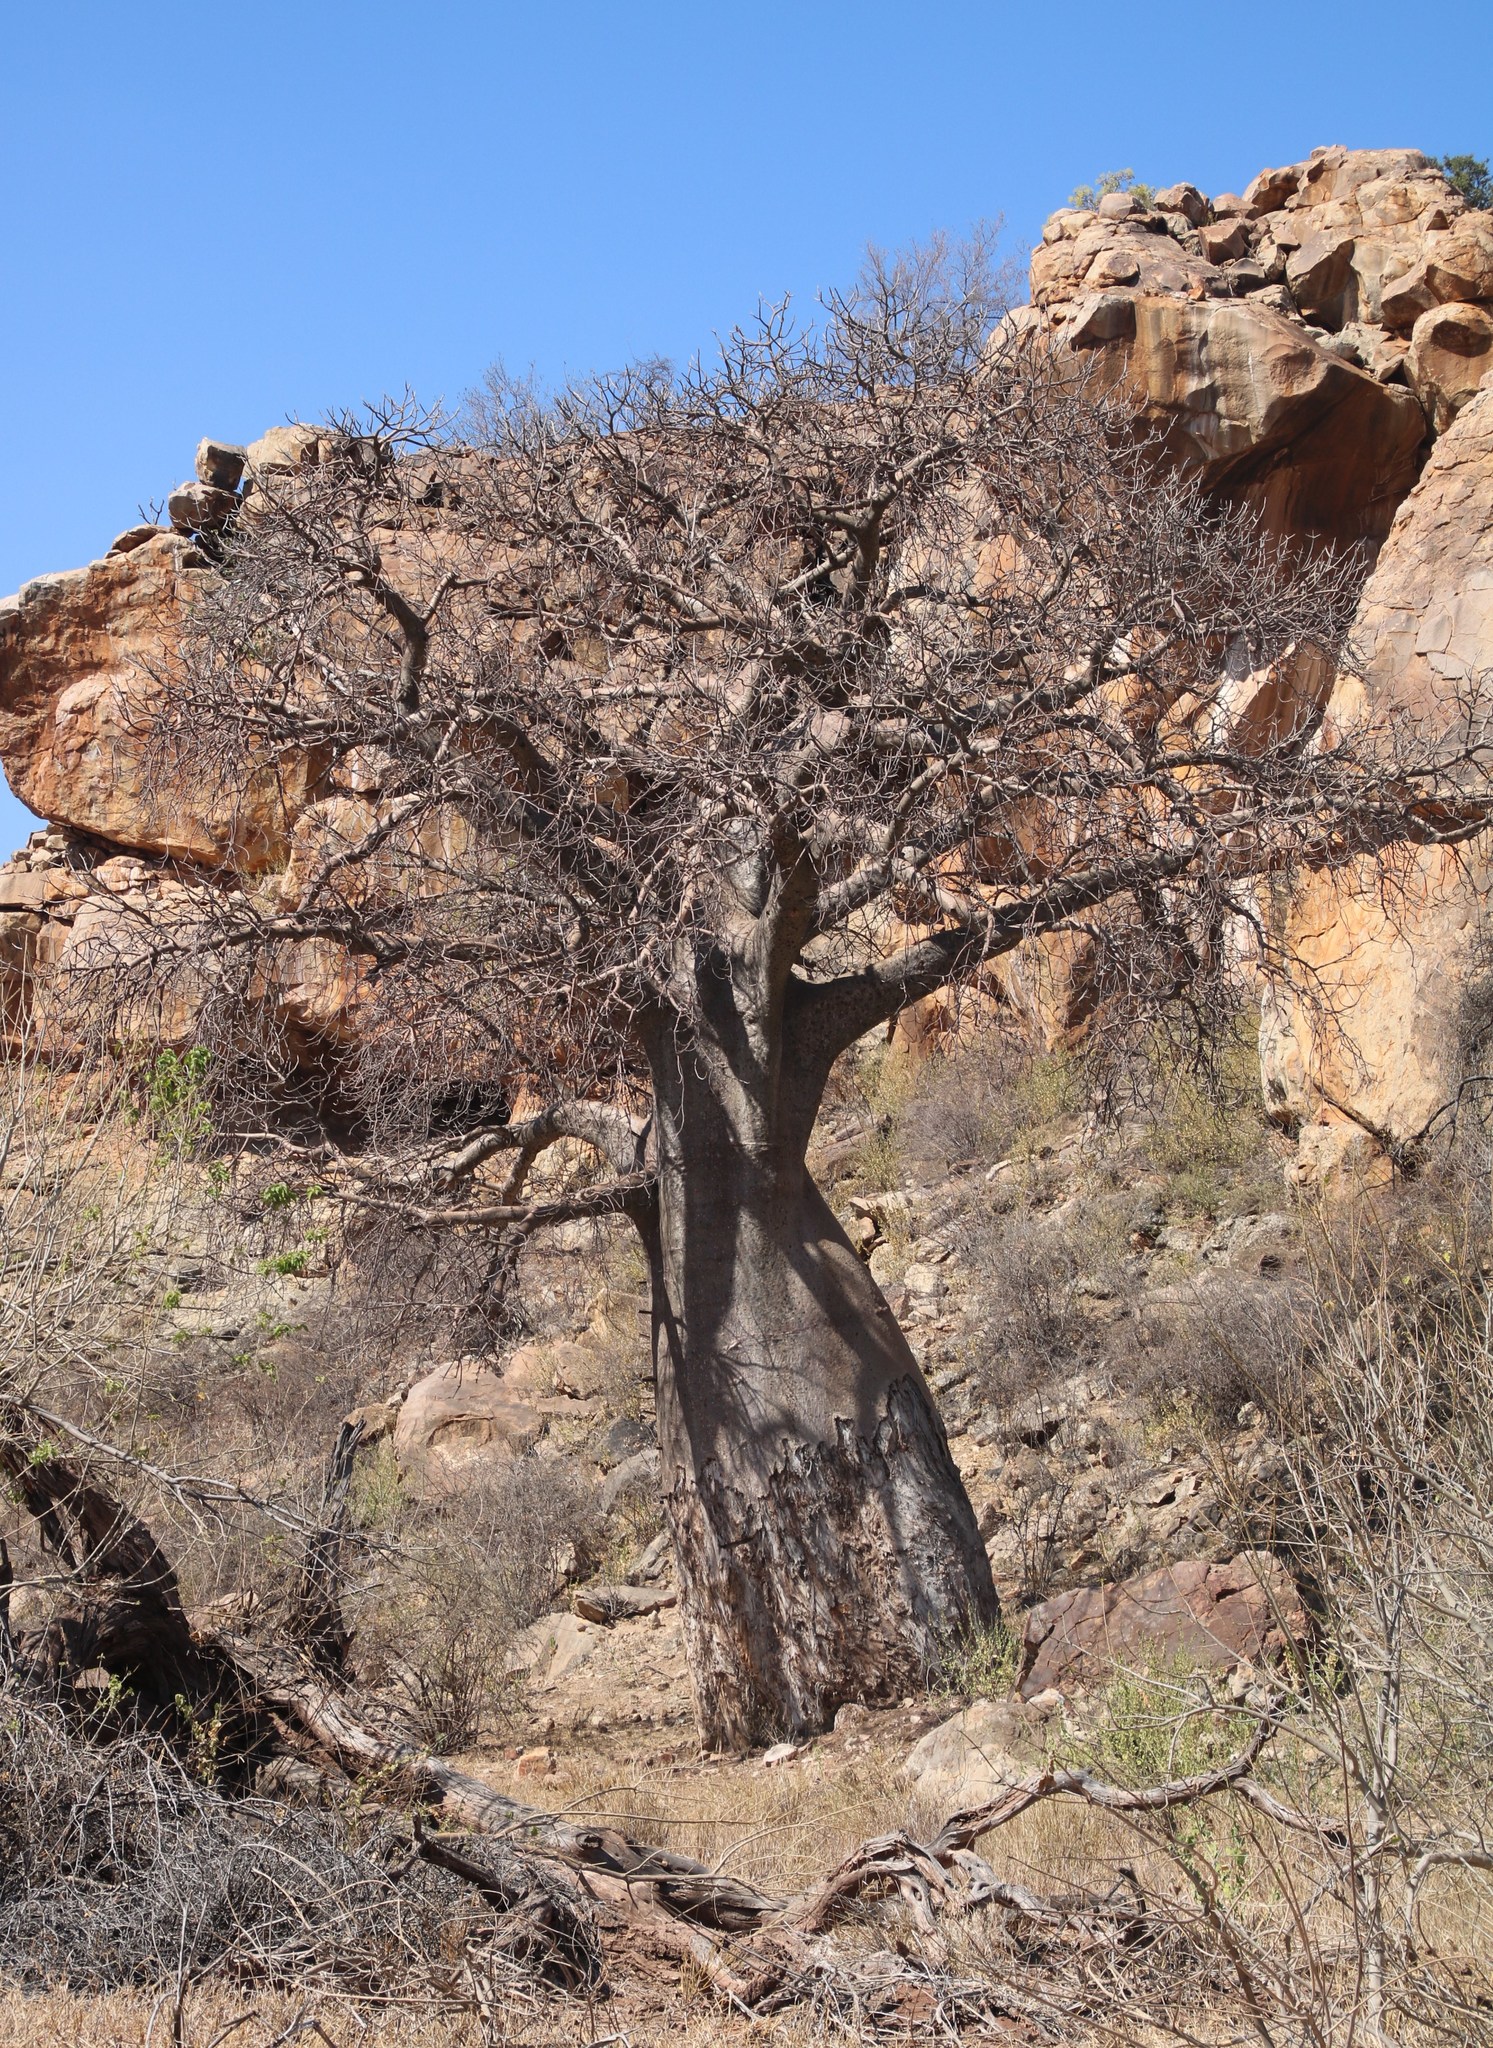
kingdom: Plantae
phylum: Tracheophyta
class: Magnoliopsida
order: Malvales
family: Malvaceae
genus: Adansonia
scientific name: Adansonia digitata
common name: Dead-rat-tree
